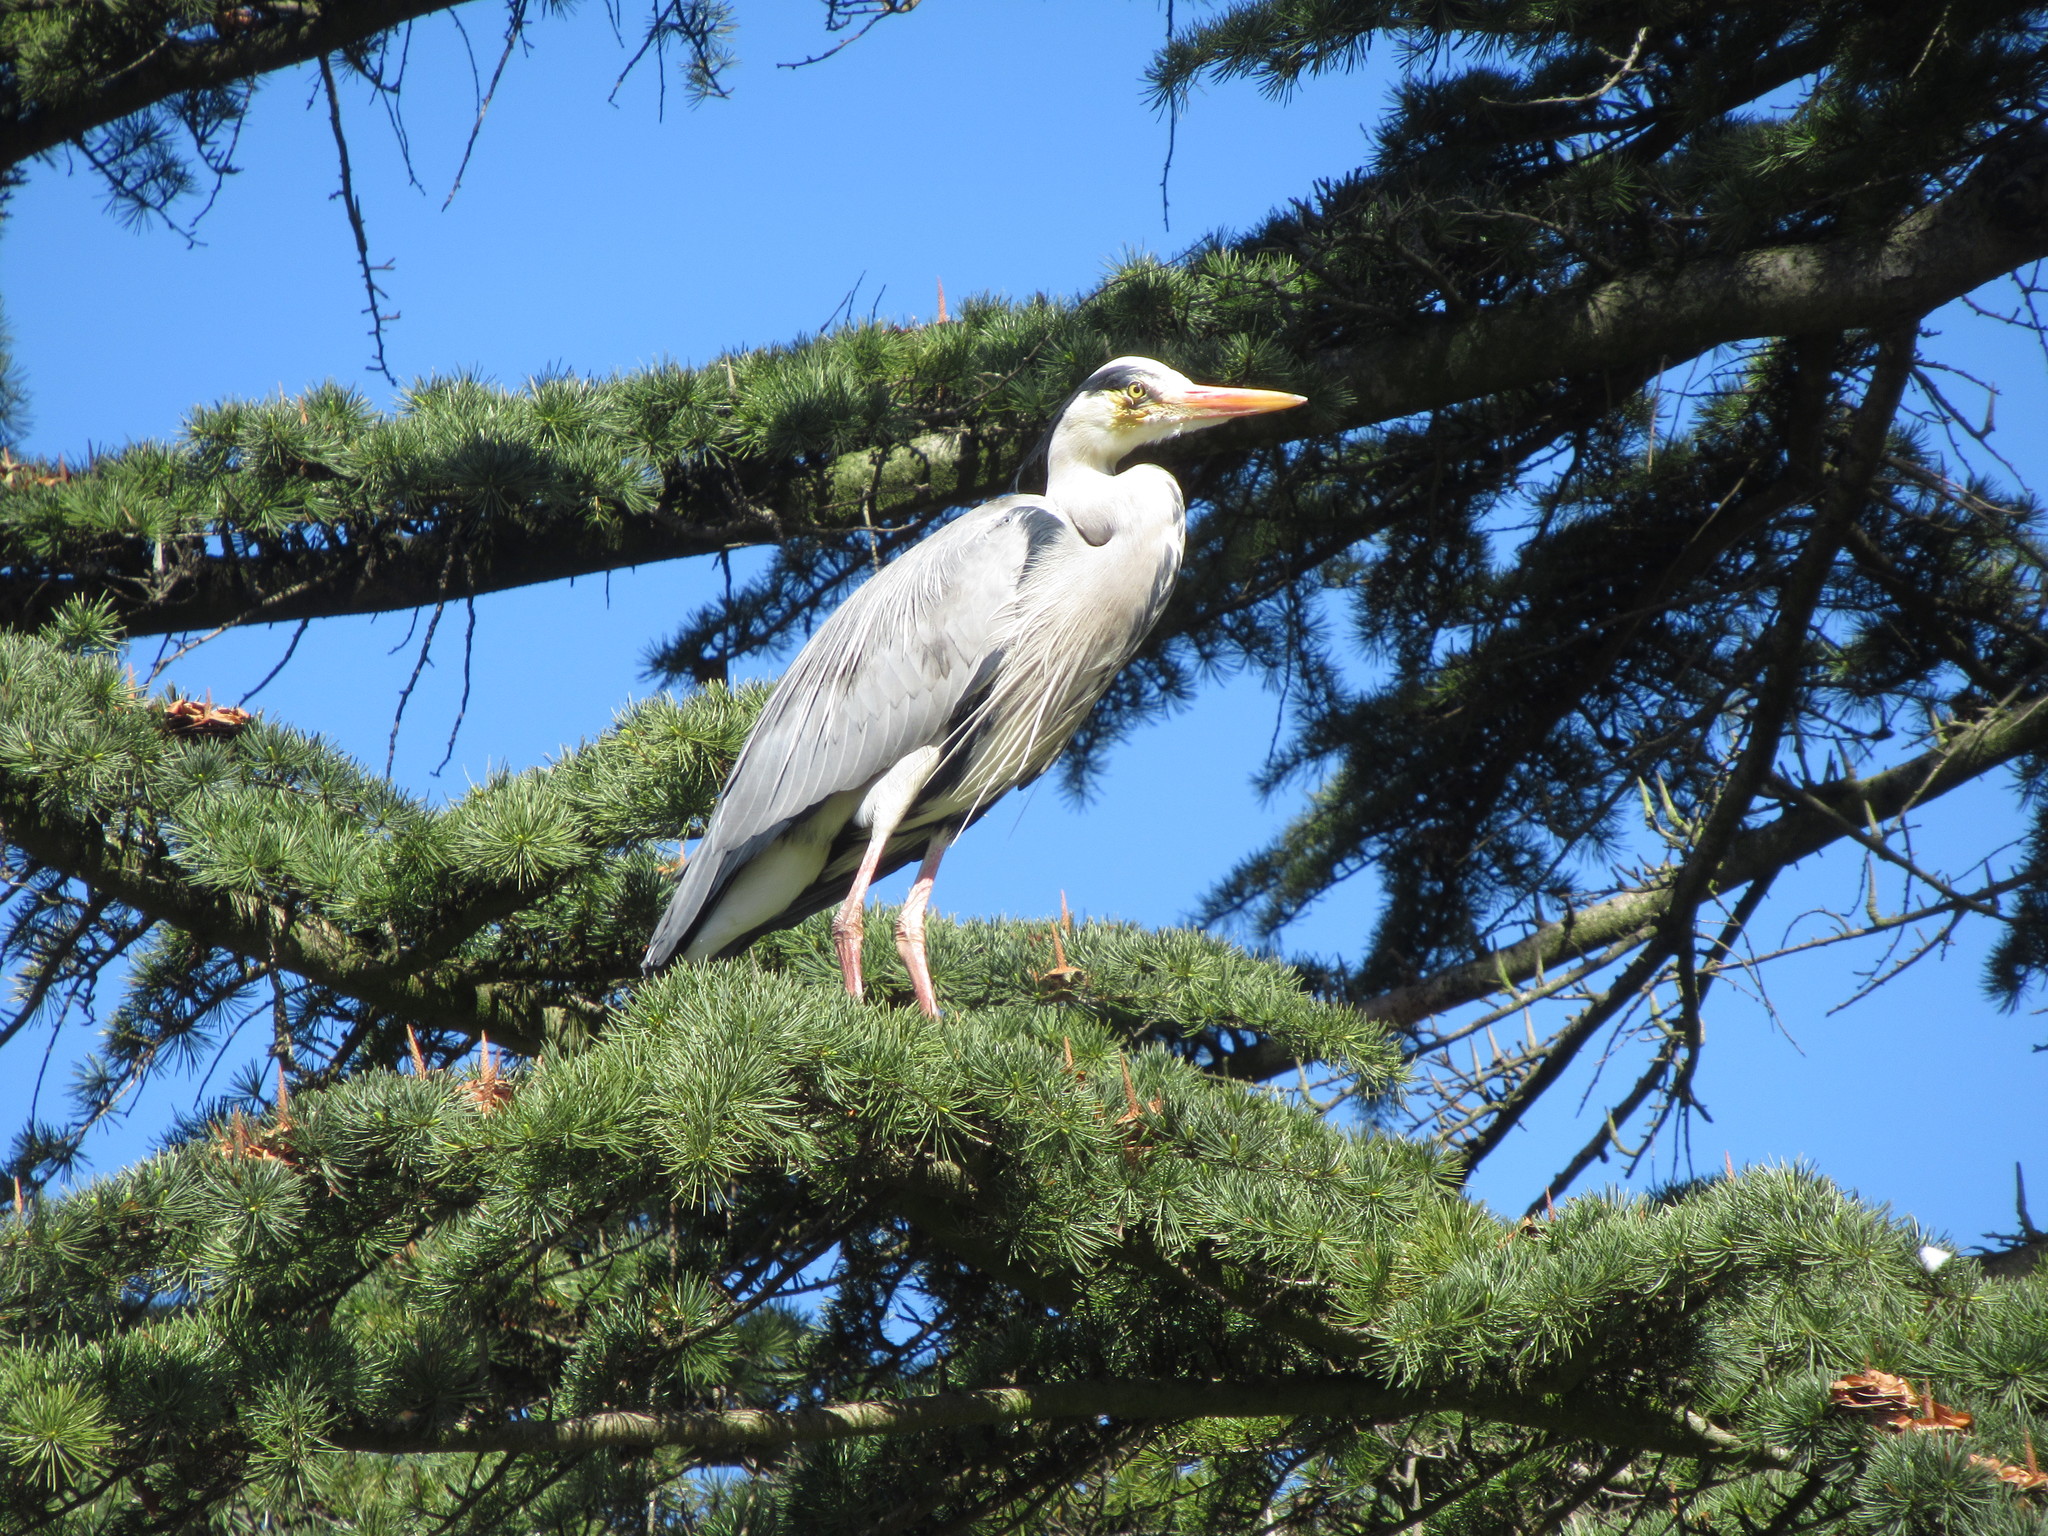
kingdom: Animalia
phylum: Chordata
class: Aves
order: Pelecaniformes
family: Ardeidae
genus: Ardea
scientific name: Ardea cinerea
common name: Grey heron
